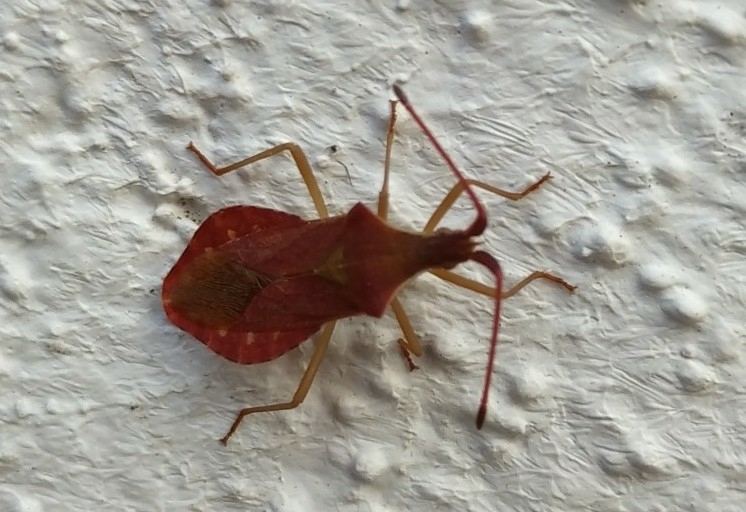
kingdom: Animalia
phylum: Arthropoda
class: Insecta
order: Hemiptera
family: Coreidae
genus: Haploprocta
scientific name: Haploprocta sulcicornis
